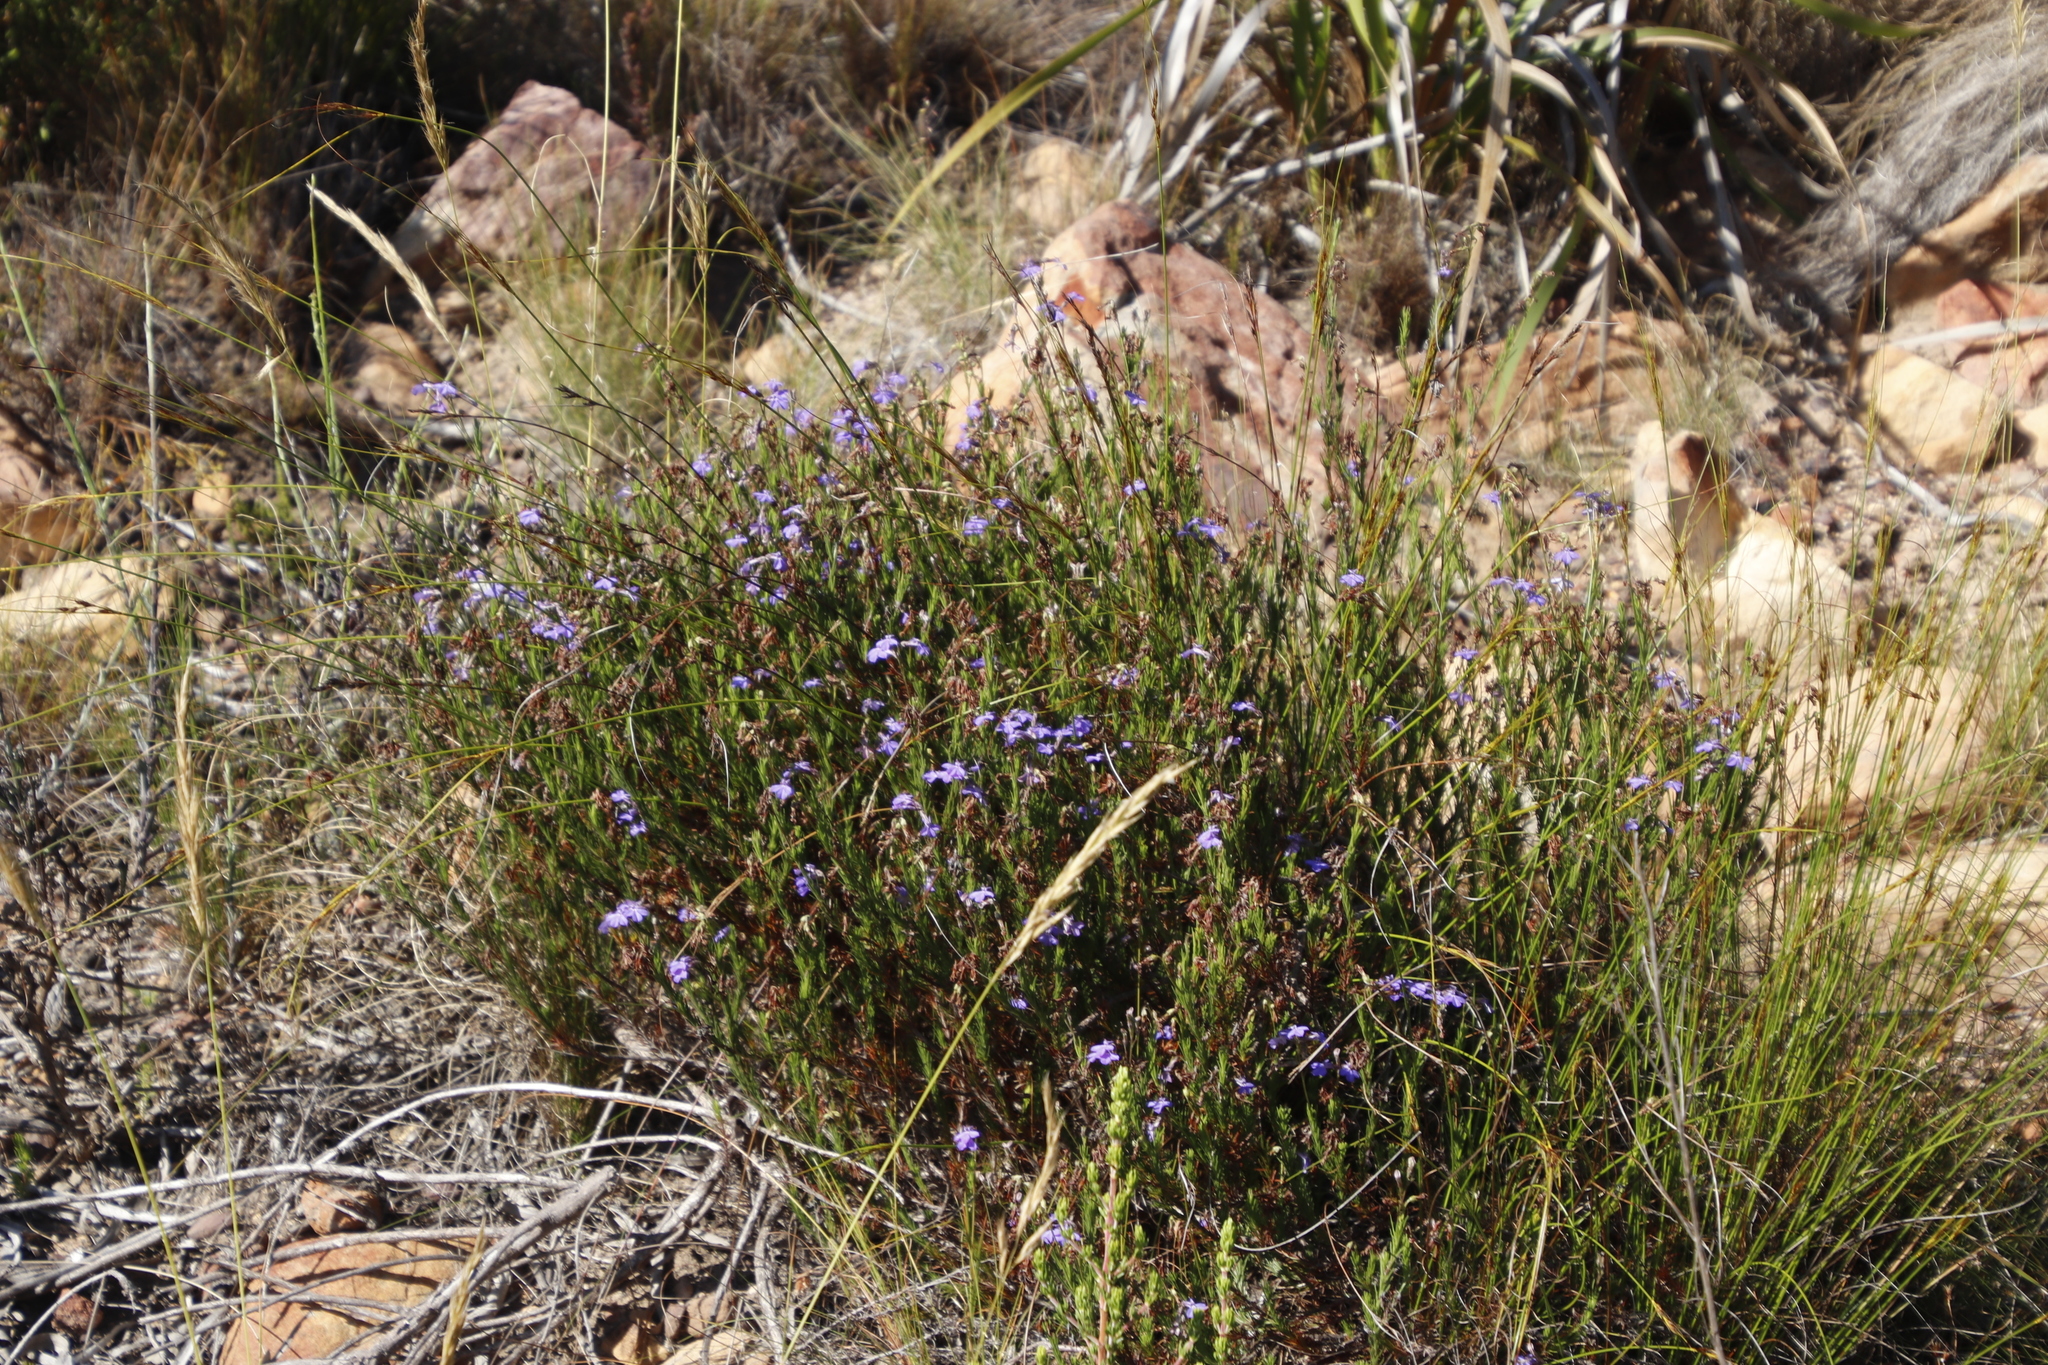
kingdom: Plantae
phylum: Tracheophyta
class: Magnoliopsida
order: Asterales
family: Campanulaceae
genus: Lobelia
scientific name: Lobelia pinifolia
